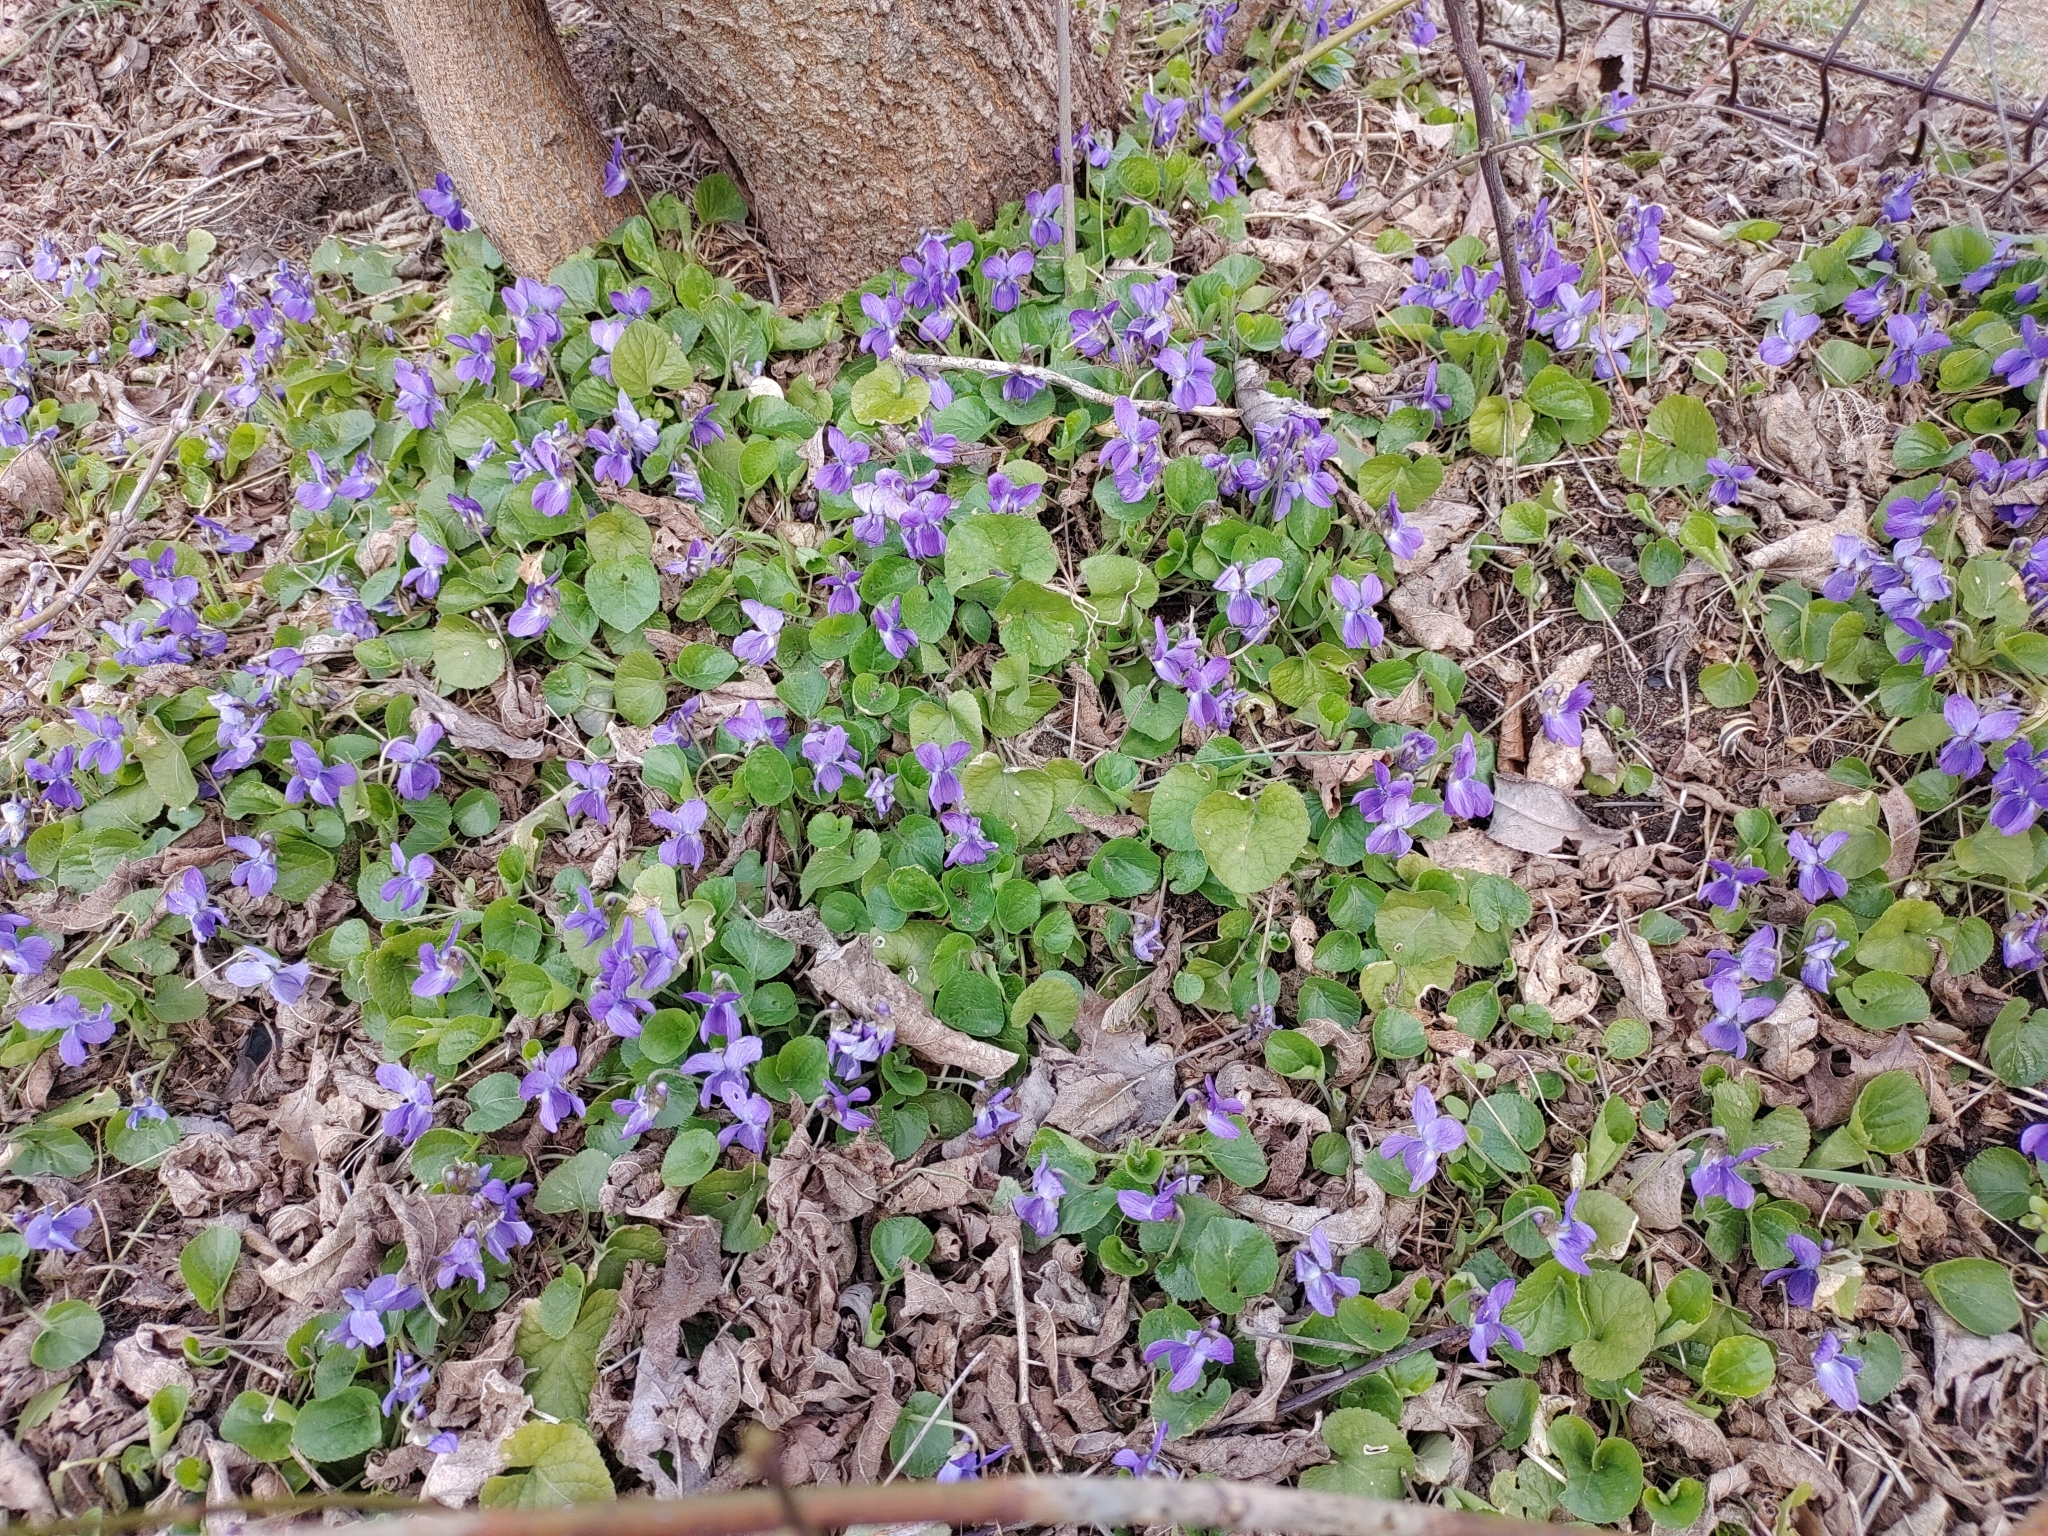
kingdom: Plantae
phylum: Tracheophyta
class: Magnoliopsida
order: Malpighiales
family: Violaceae
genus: Viola
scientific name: Viola odorata
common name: Sweet violet
